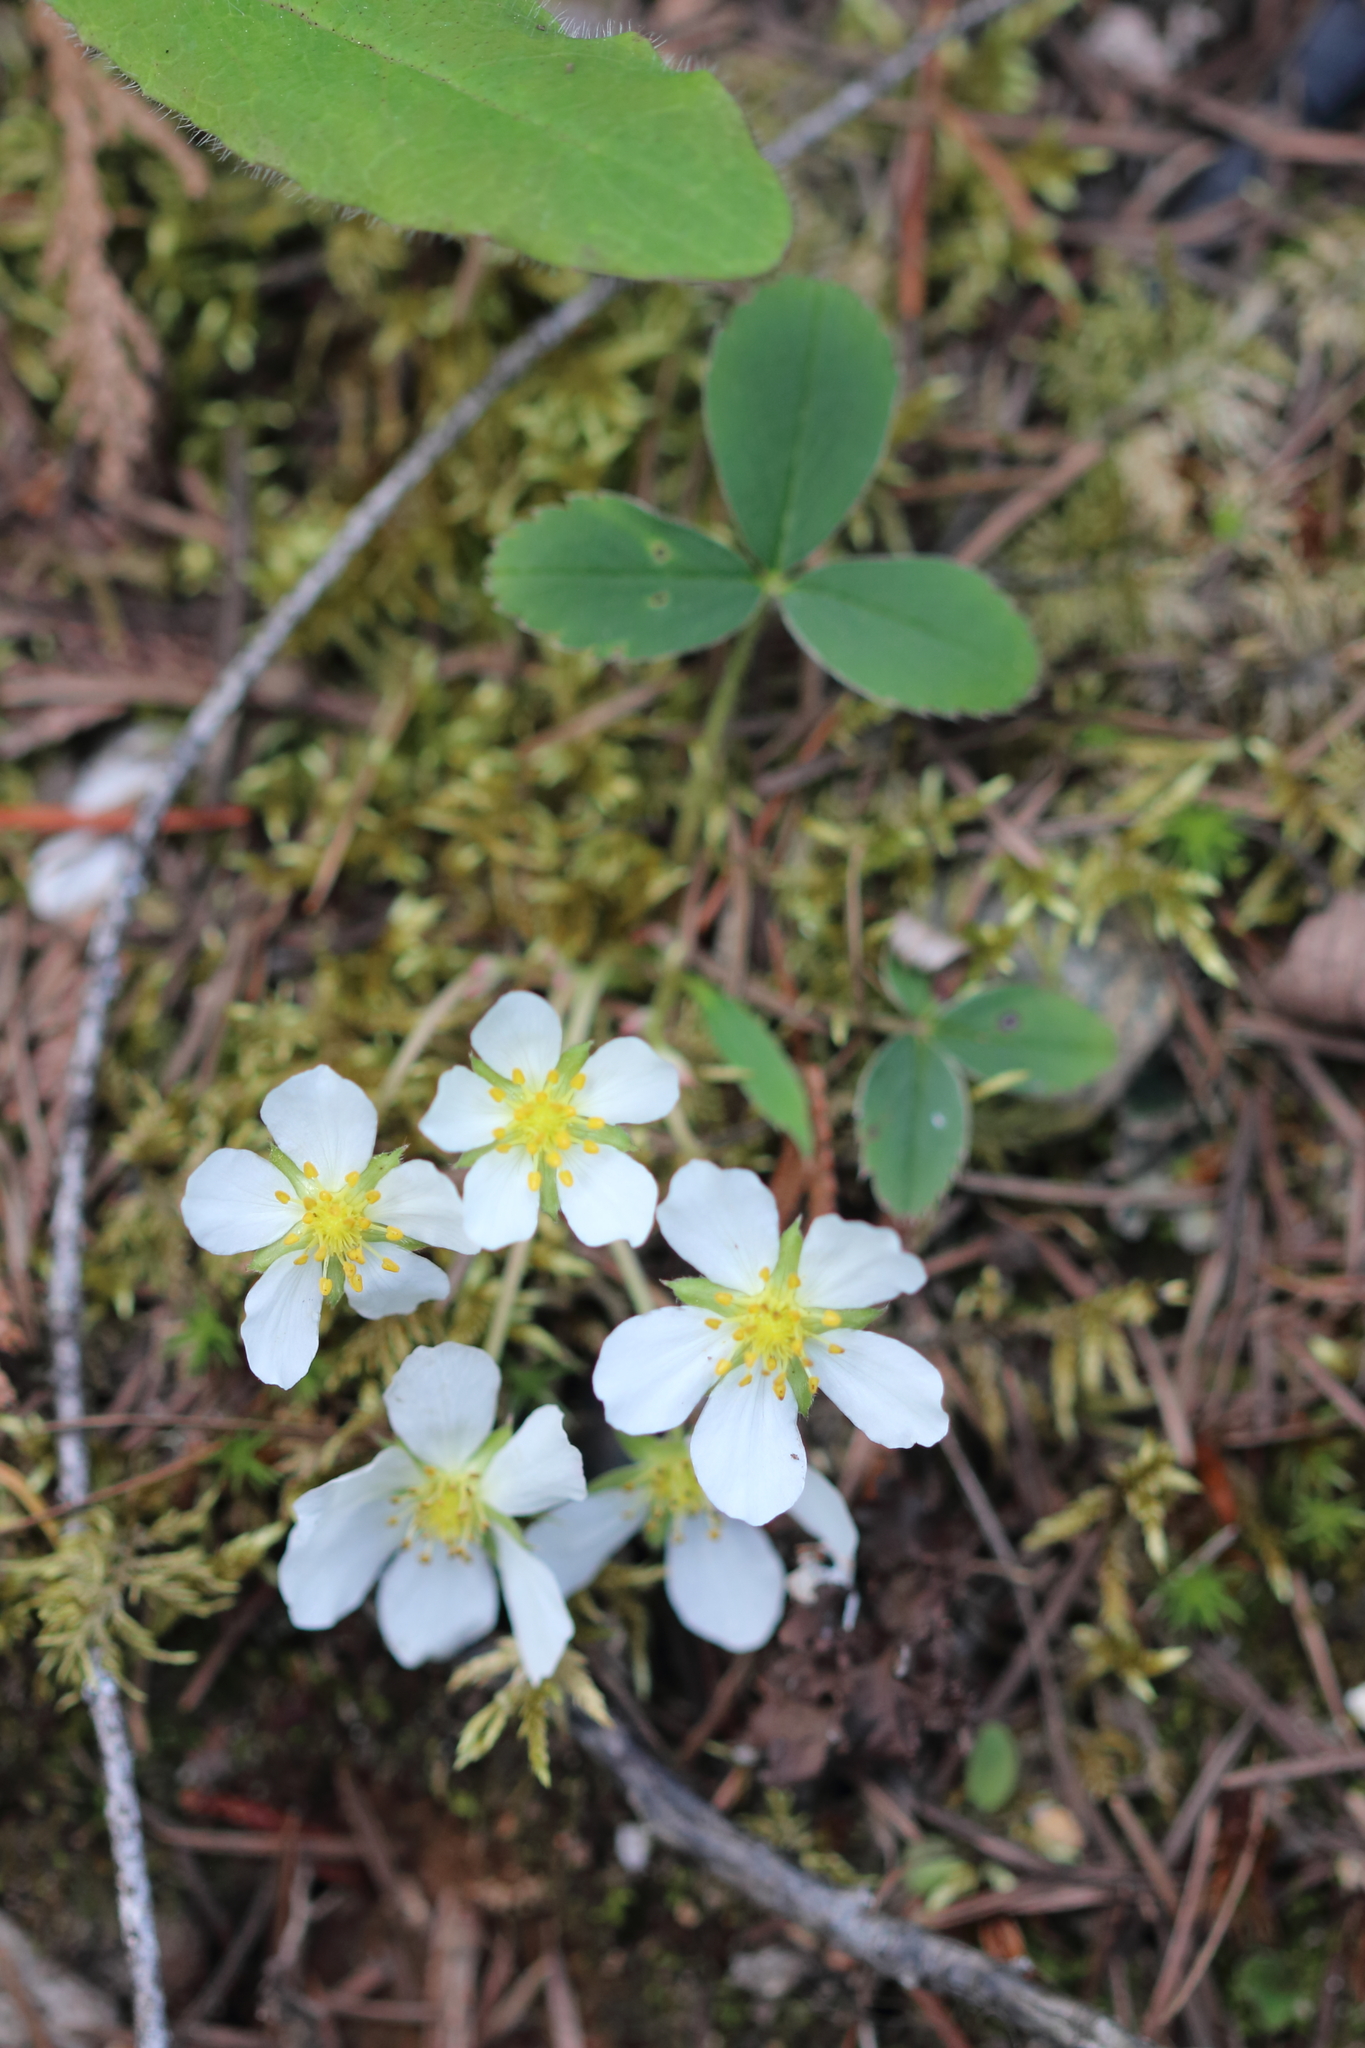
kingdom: Plantae
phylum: Tracheophyta
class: Magnoliopsida
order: Rosales
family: Rosaceae
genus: Fragaria
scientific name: Fragaria virginiana
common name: Thickleaved wild strawberry
